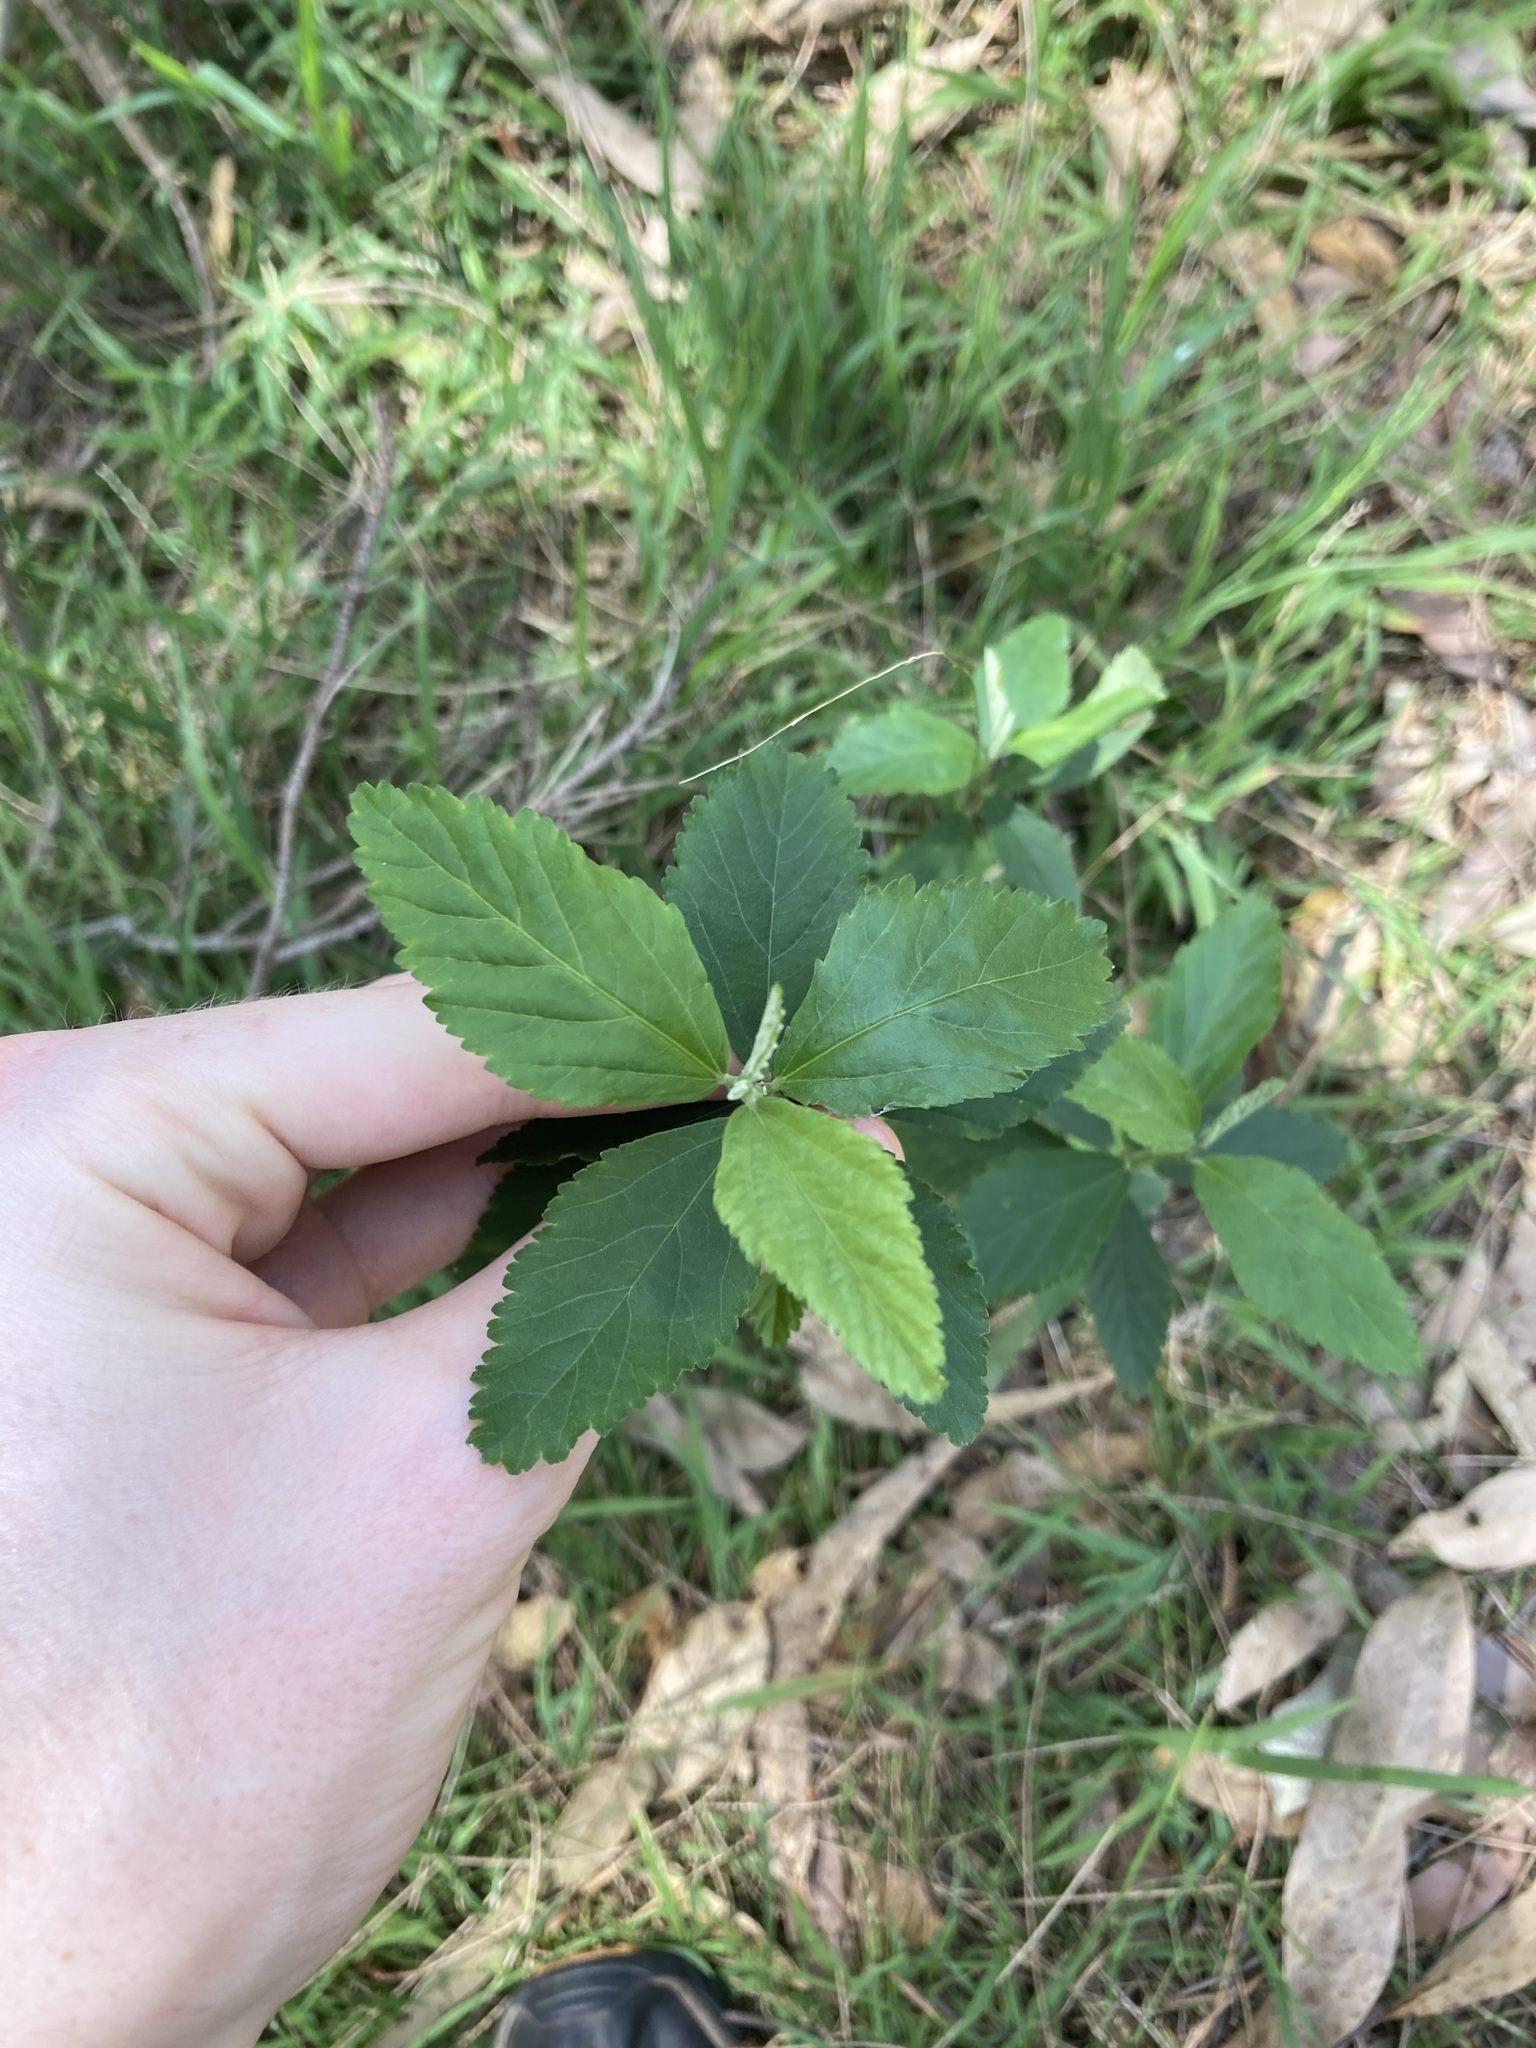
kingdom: Plantae
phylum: Tracheophyta
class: Magnoliopsida
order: Malvales
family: Malvaceae
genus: Sida
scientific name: Sida rhombifolia
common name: Queensland-hemp
